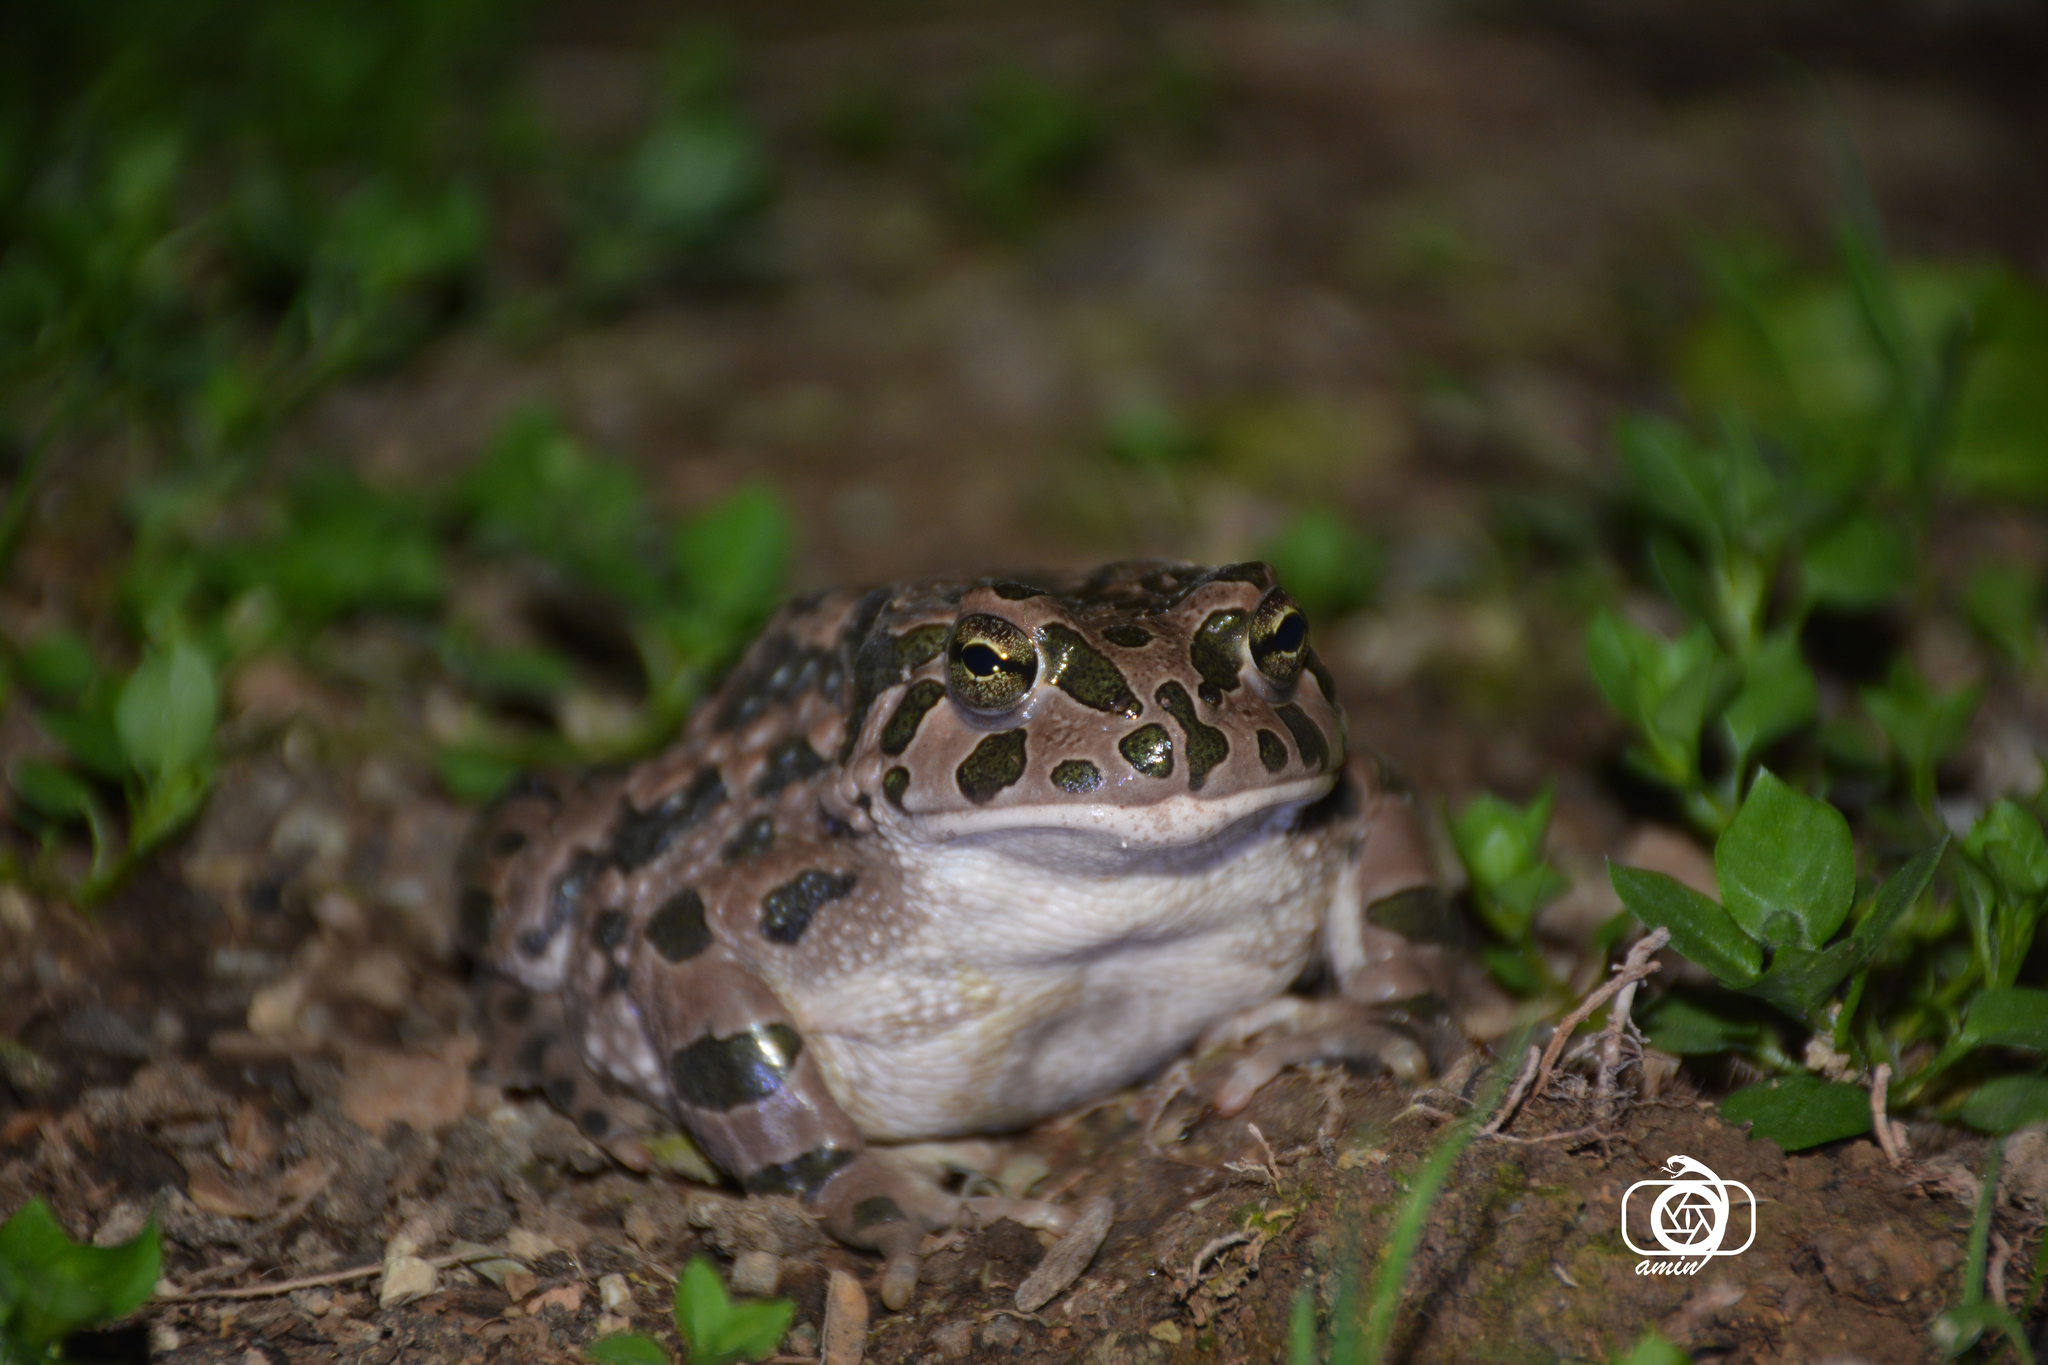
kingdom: Animalia
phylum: Chordata
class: Amphibia
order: Anura
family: Bufonidae
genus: Bufotes
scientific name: Bufotes viridis
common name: European green toad
